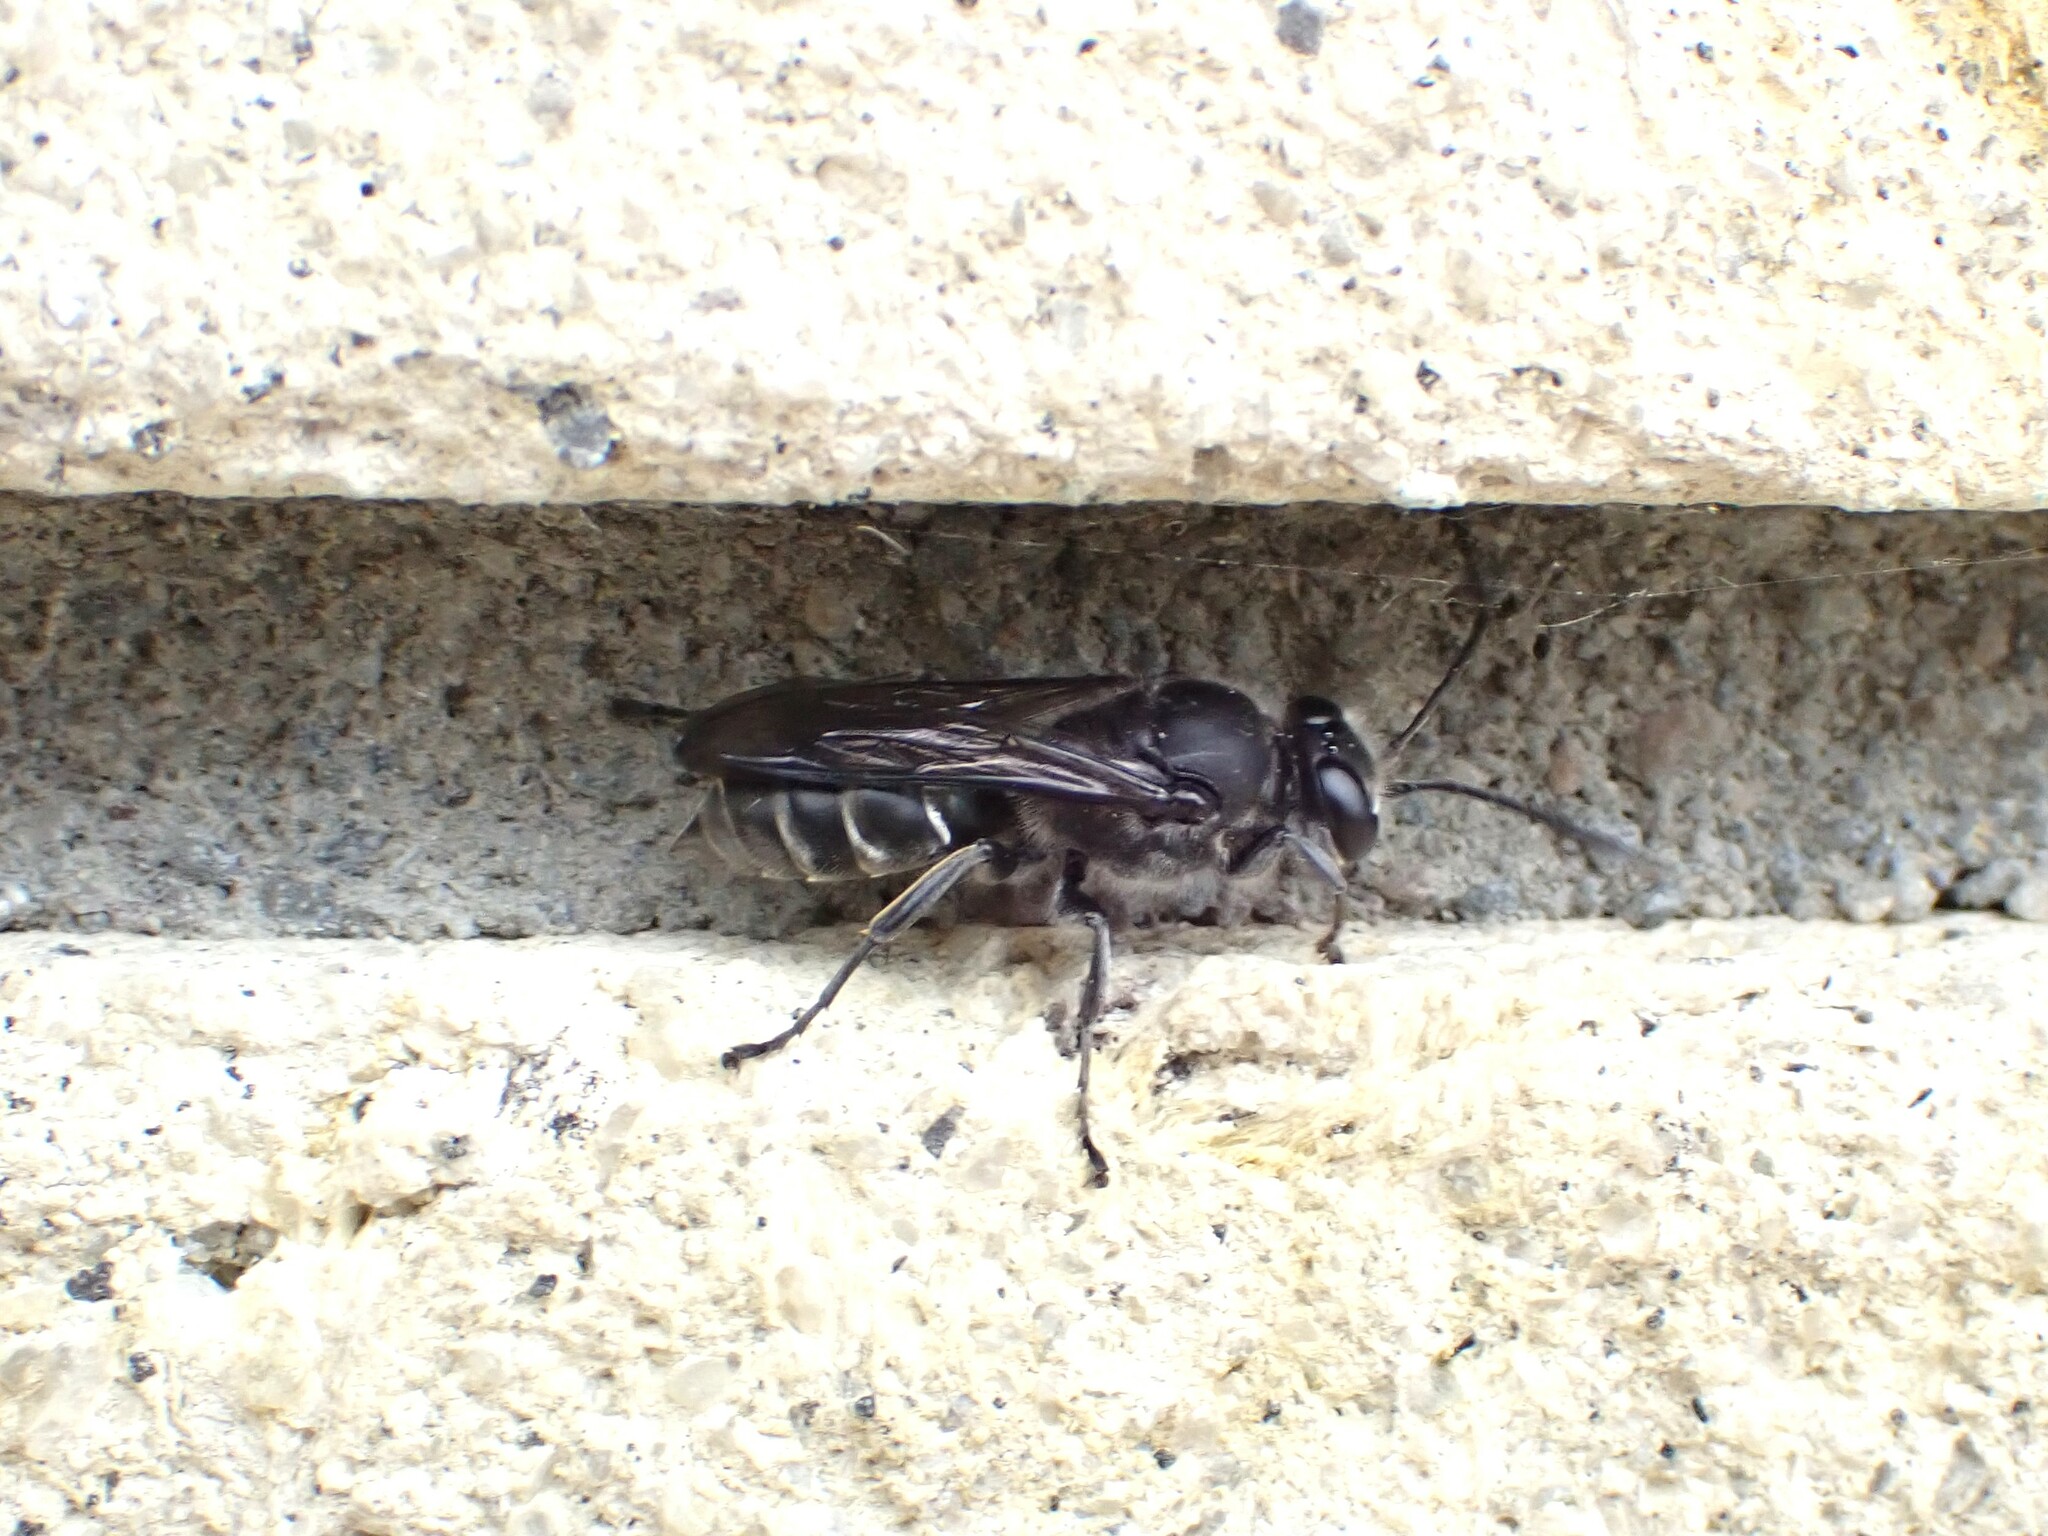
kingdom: Animalia
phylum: Arthropoda
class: Insecta
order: Hymenoptera
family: Crabronidae
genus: Pison
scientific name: Pison spinolae
